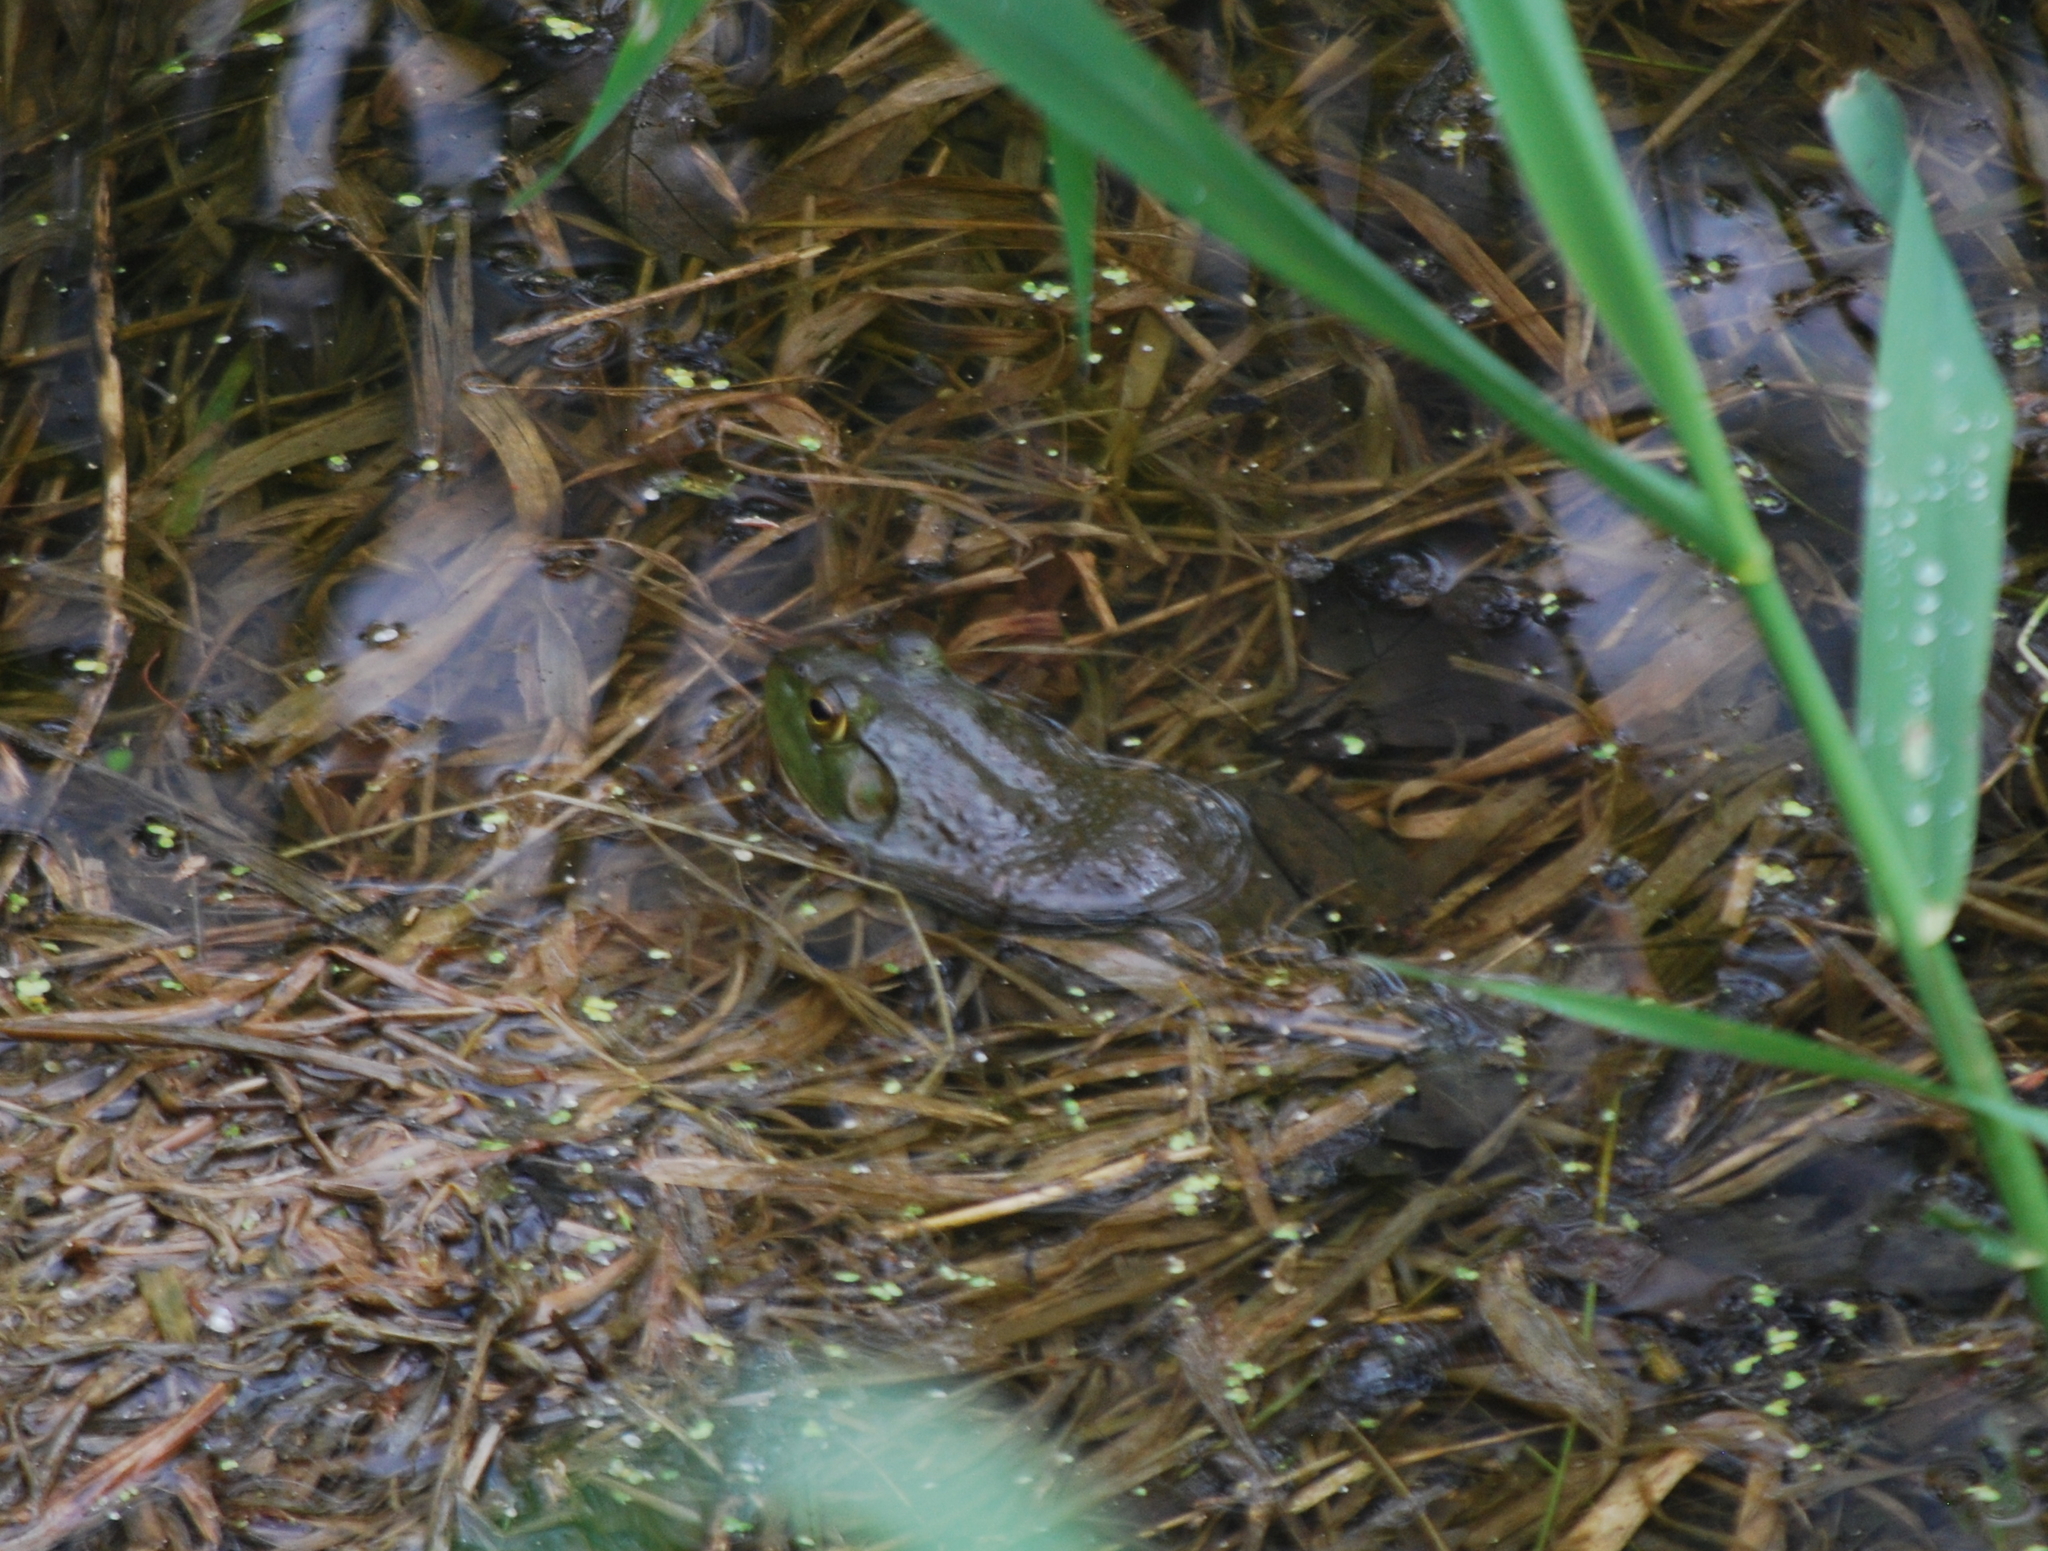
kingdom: Animalia
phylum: Chordata
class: Amphibia
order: Anura
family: Ranidae
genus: Lithobates
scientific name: Lithobates catesbeianus
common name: American bullfrog
